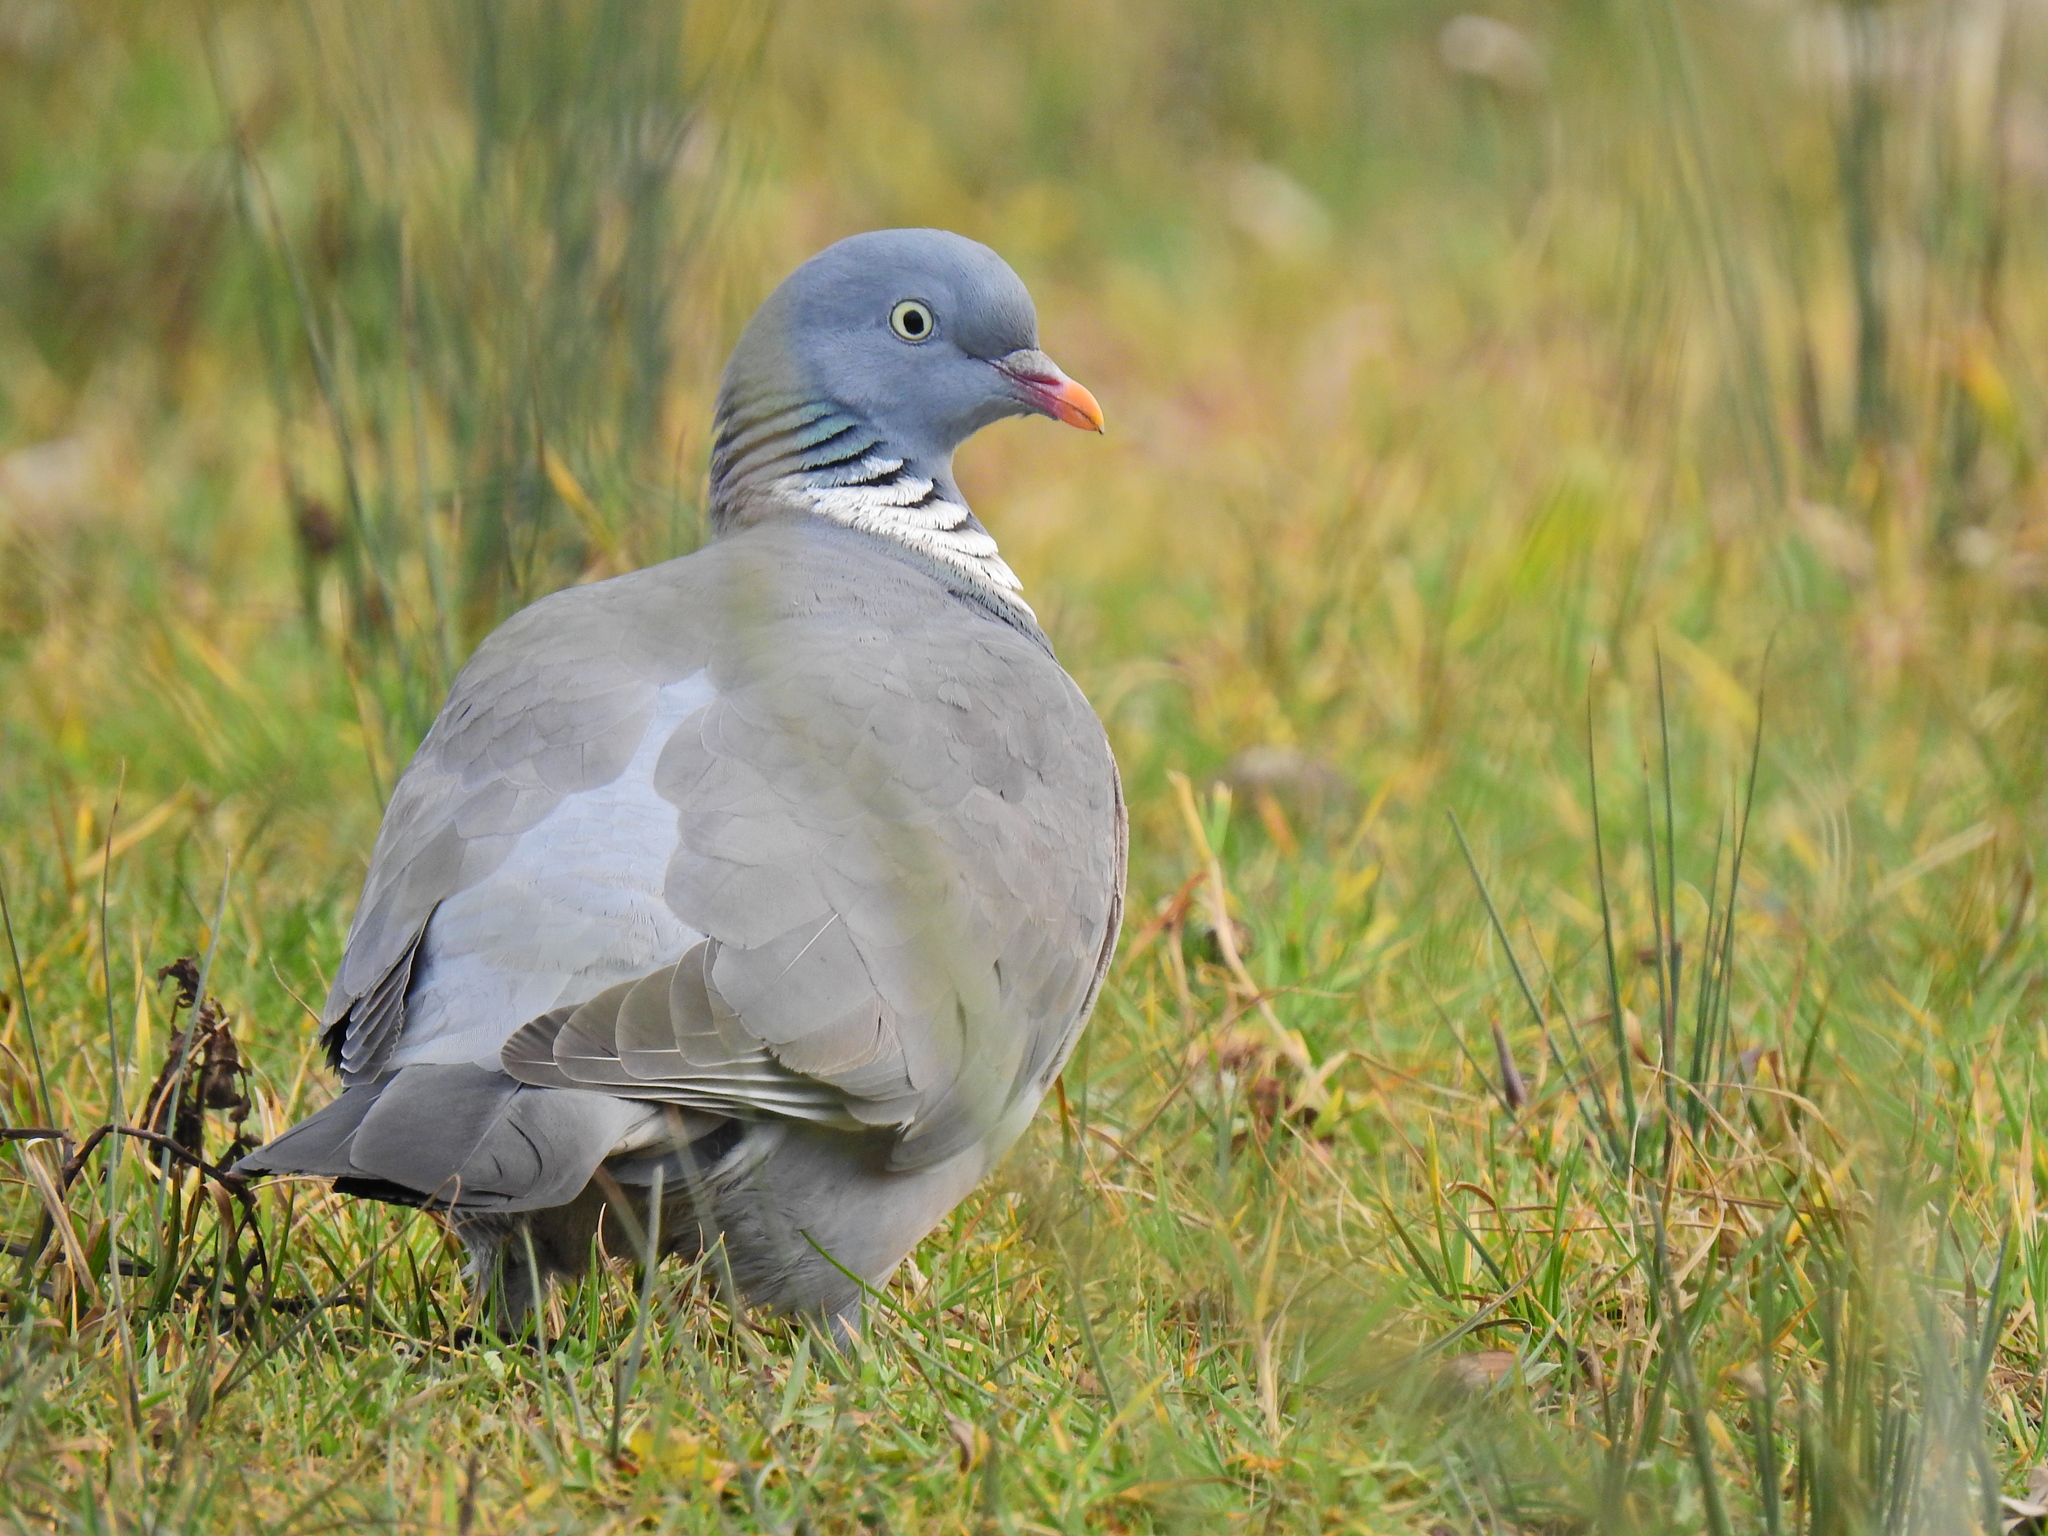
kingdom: Animalia
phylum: Chordata
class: Aves
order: Columbiformes
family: Columbidae
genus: Columba
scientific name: Columba palumbus
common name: Common wood pigeon
